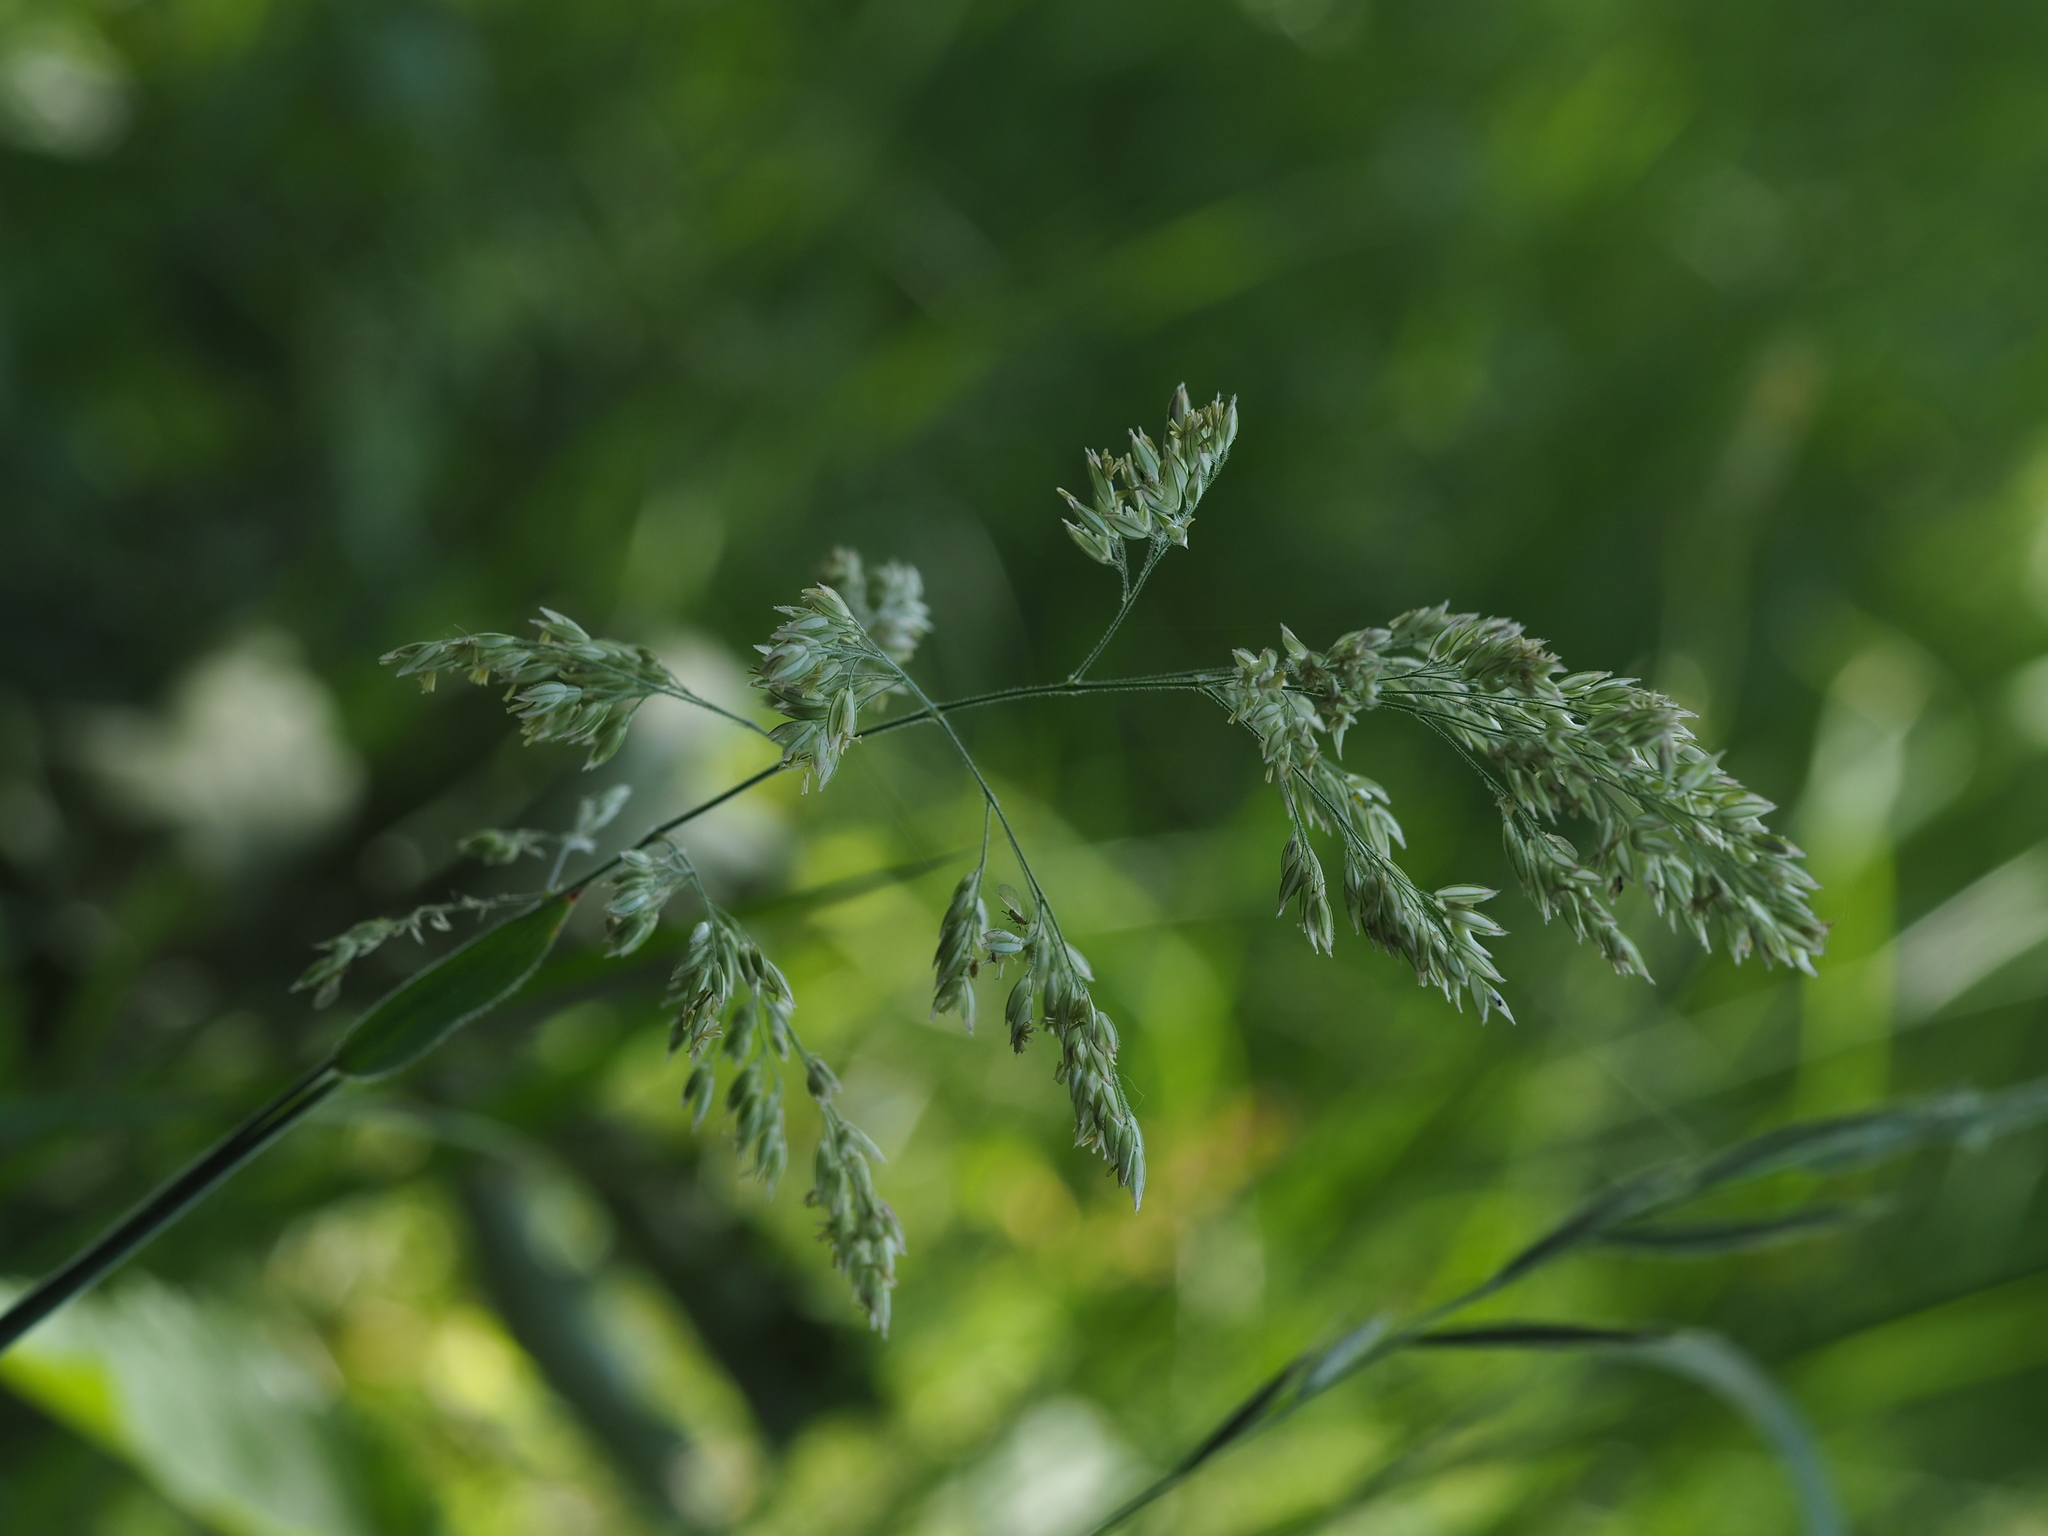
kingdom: Plantae
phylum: Tracheophyta
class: Liliopsida
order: Poales
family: Poaceae
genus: Holcus
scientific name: Holcus lanatus
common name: Yorkshire-fog
